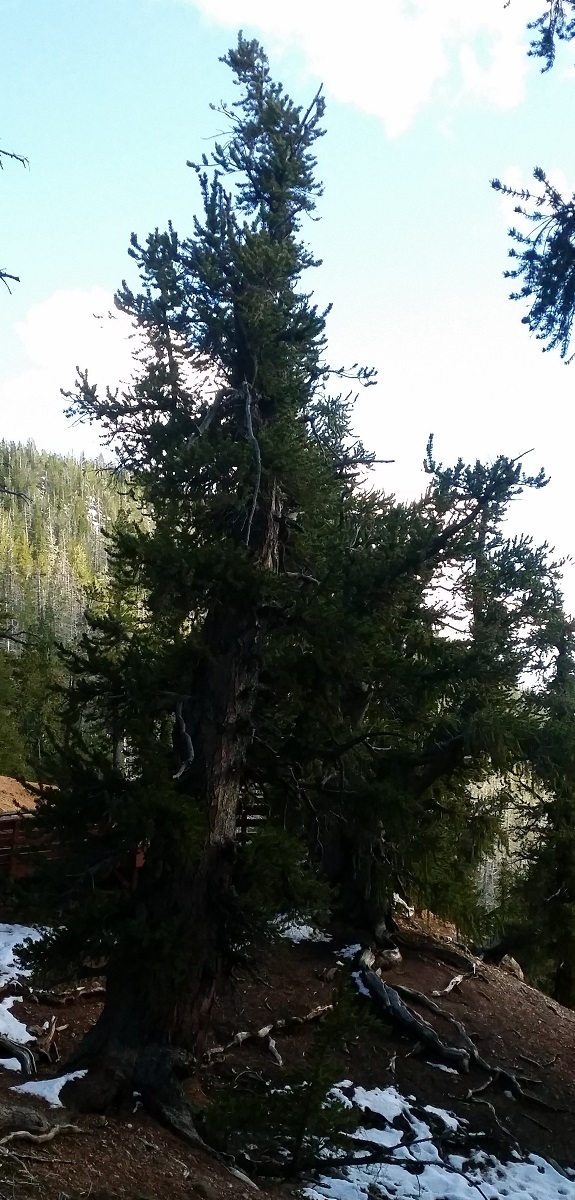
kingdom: Plantae
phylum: Tracheophyta
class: Pinopsida
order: Pinales
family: Pinaceae
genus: Pinus
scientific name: Pinus longaeva
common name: Intermountain bristlecone pine
